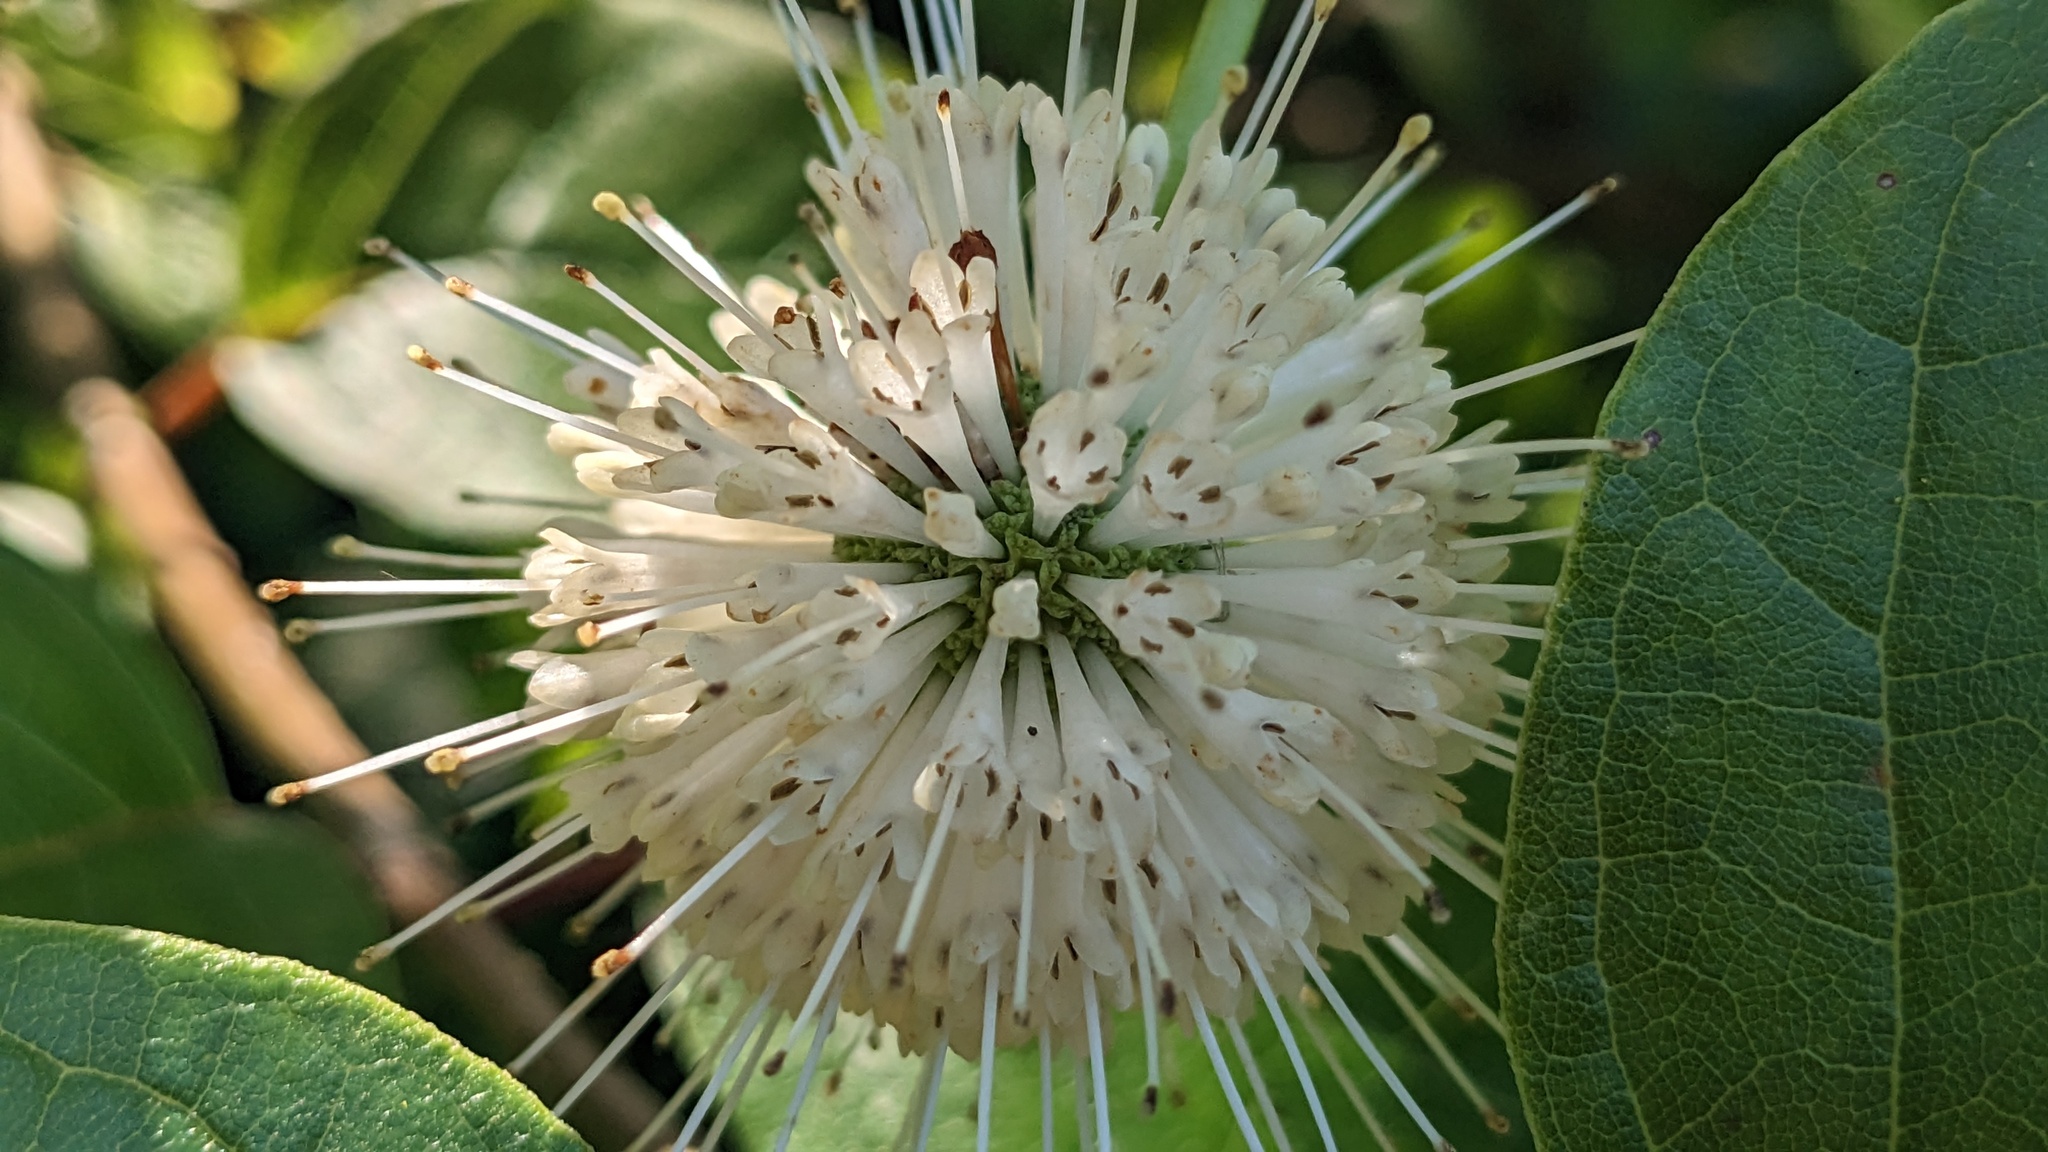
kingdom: Plantae
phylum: Tracheophyta
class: Magnoliopsida
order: Gentianales
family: Rubiaceae
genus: Cephalanthus
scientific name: Cephalanthus occidentalis
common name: Button-willow
